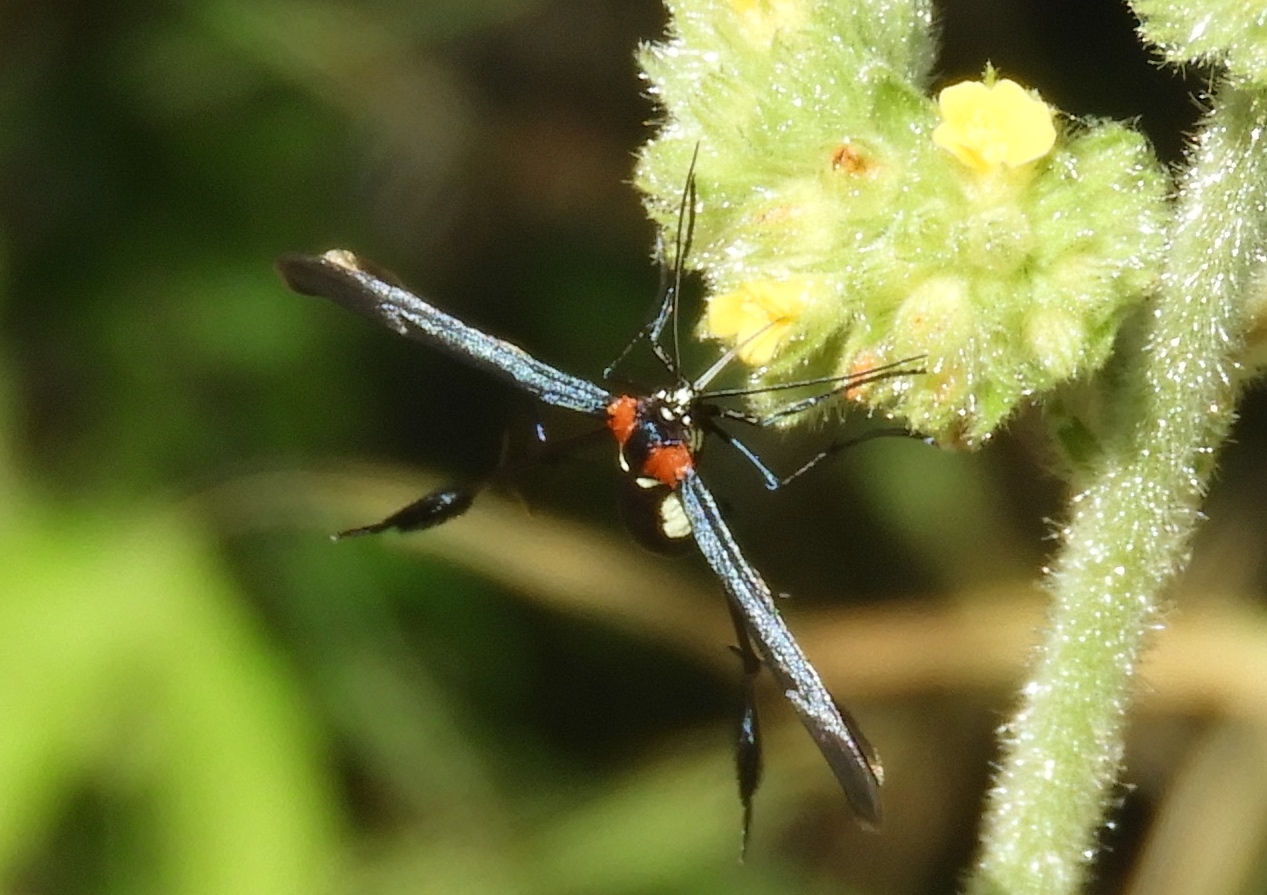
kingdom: Animalia
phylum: Arthropoda
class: Insecta
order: Lepidoptera
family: Pterophoridae
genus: Hellinsia
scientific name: Hellinsia chamelai
